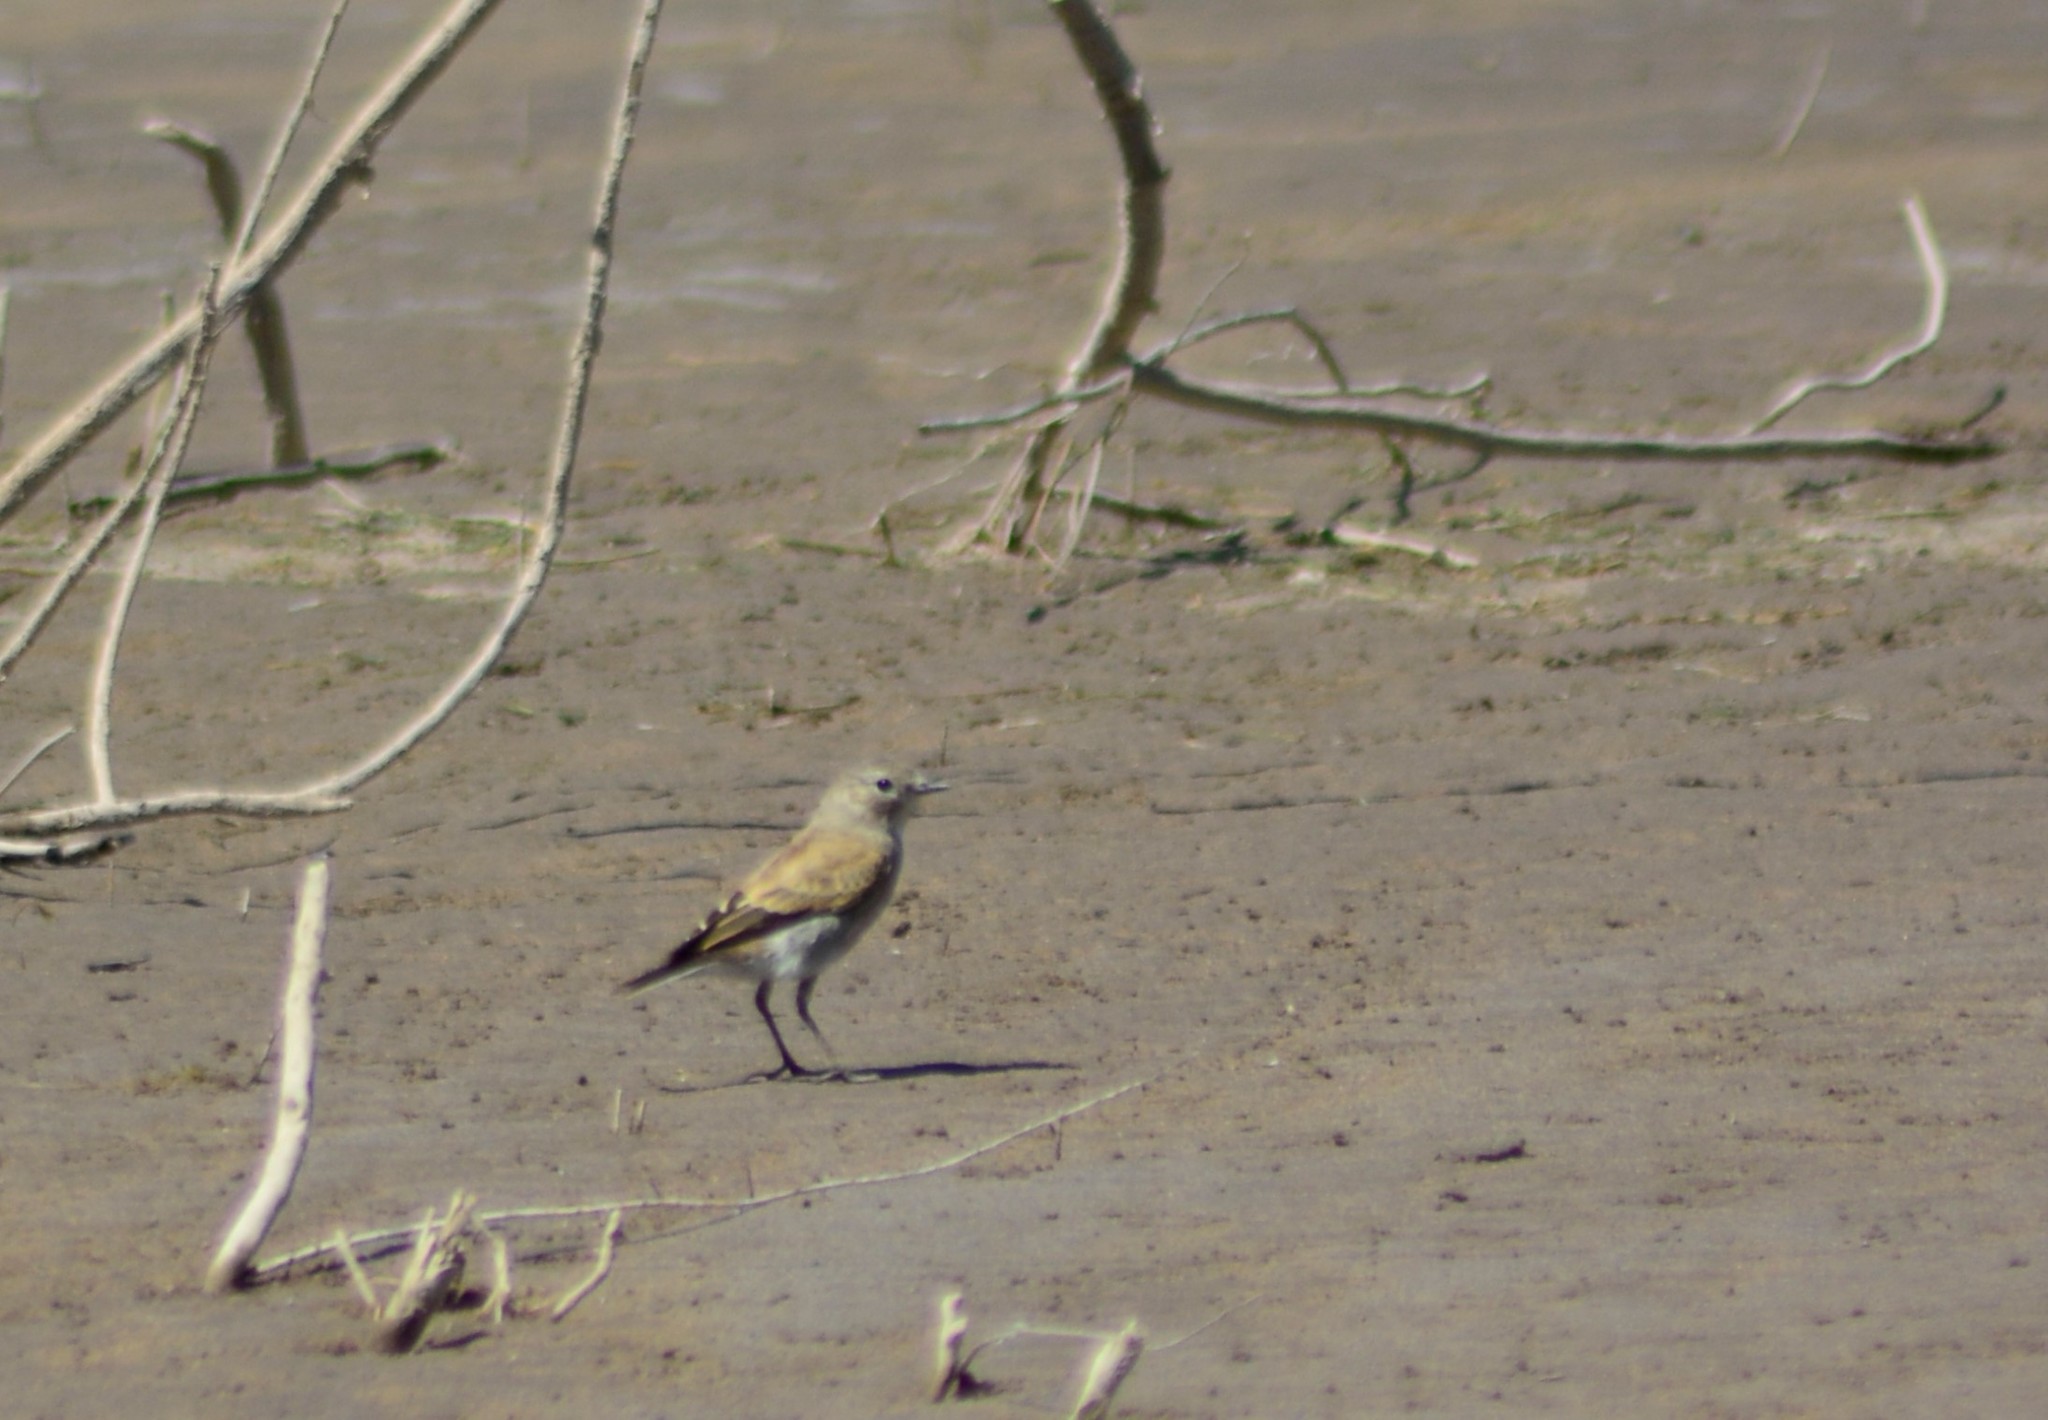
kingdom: Animalia
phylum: Chordata
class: Aves
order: Passeriformes
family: Tyrannidae
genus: Lessonia
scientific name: Lessonia rufa
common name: Austral negrito
